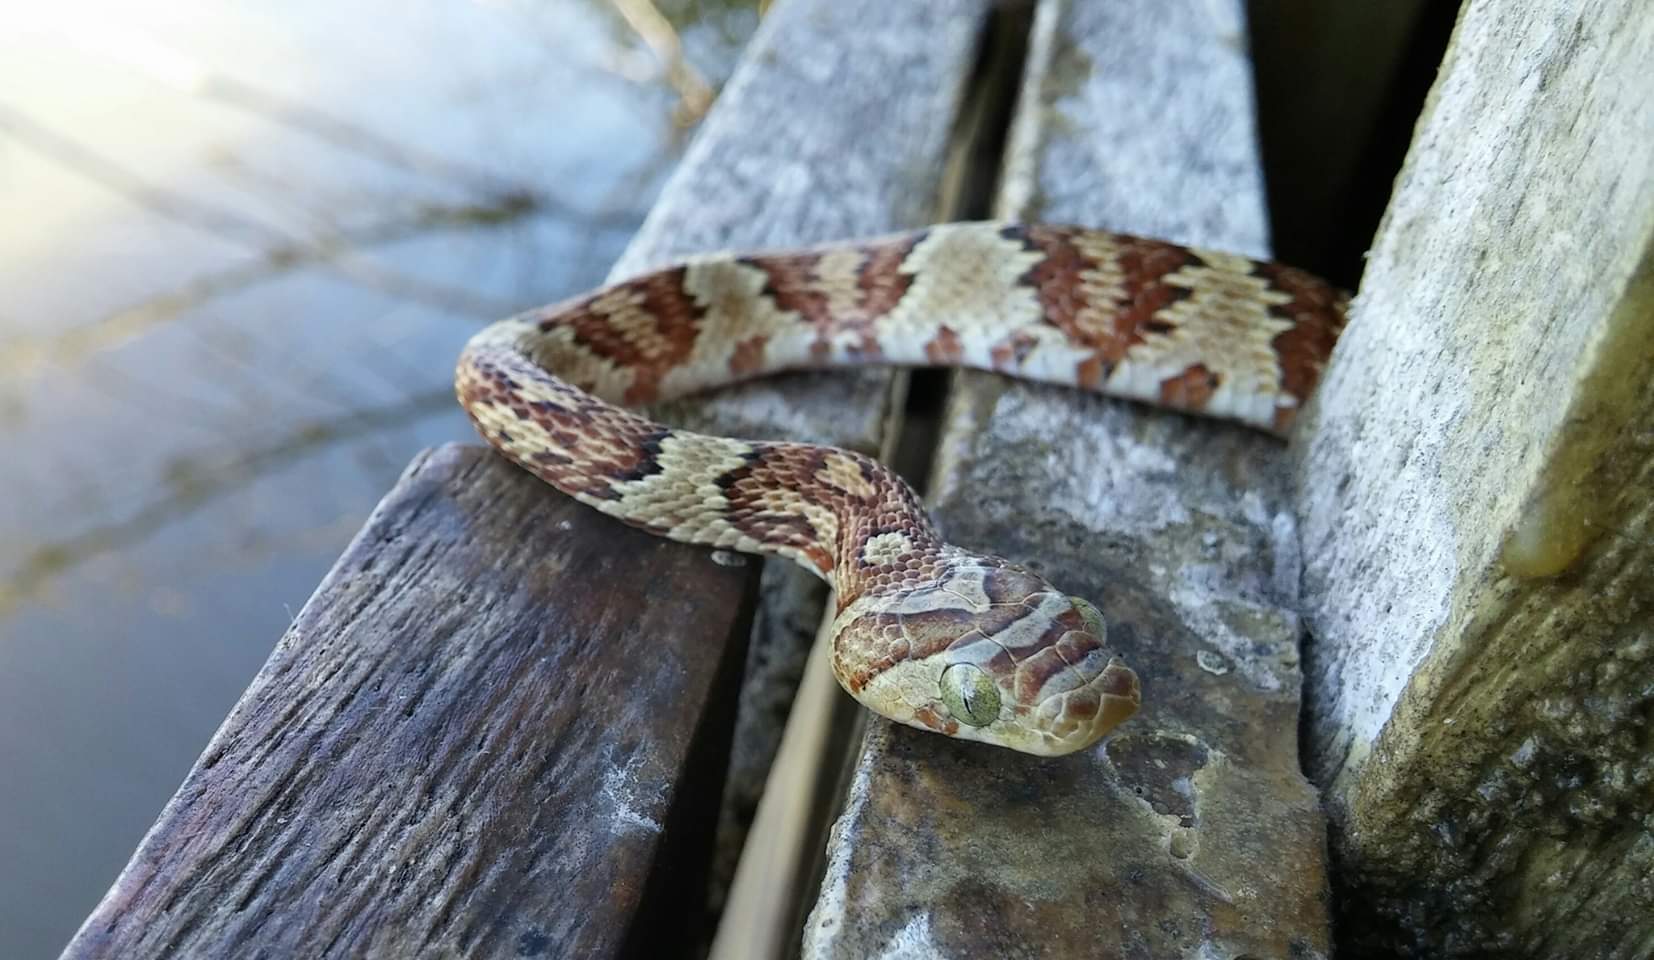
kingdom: Animalia
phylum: Chordata
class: Squamata
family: Colubridae
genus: Trimorphodon
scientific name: Trimorphodon paucimaculatus
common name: Sinaloan lyresnake
